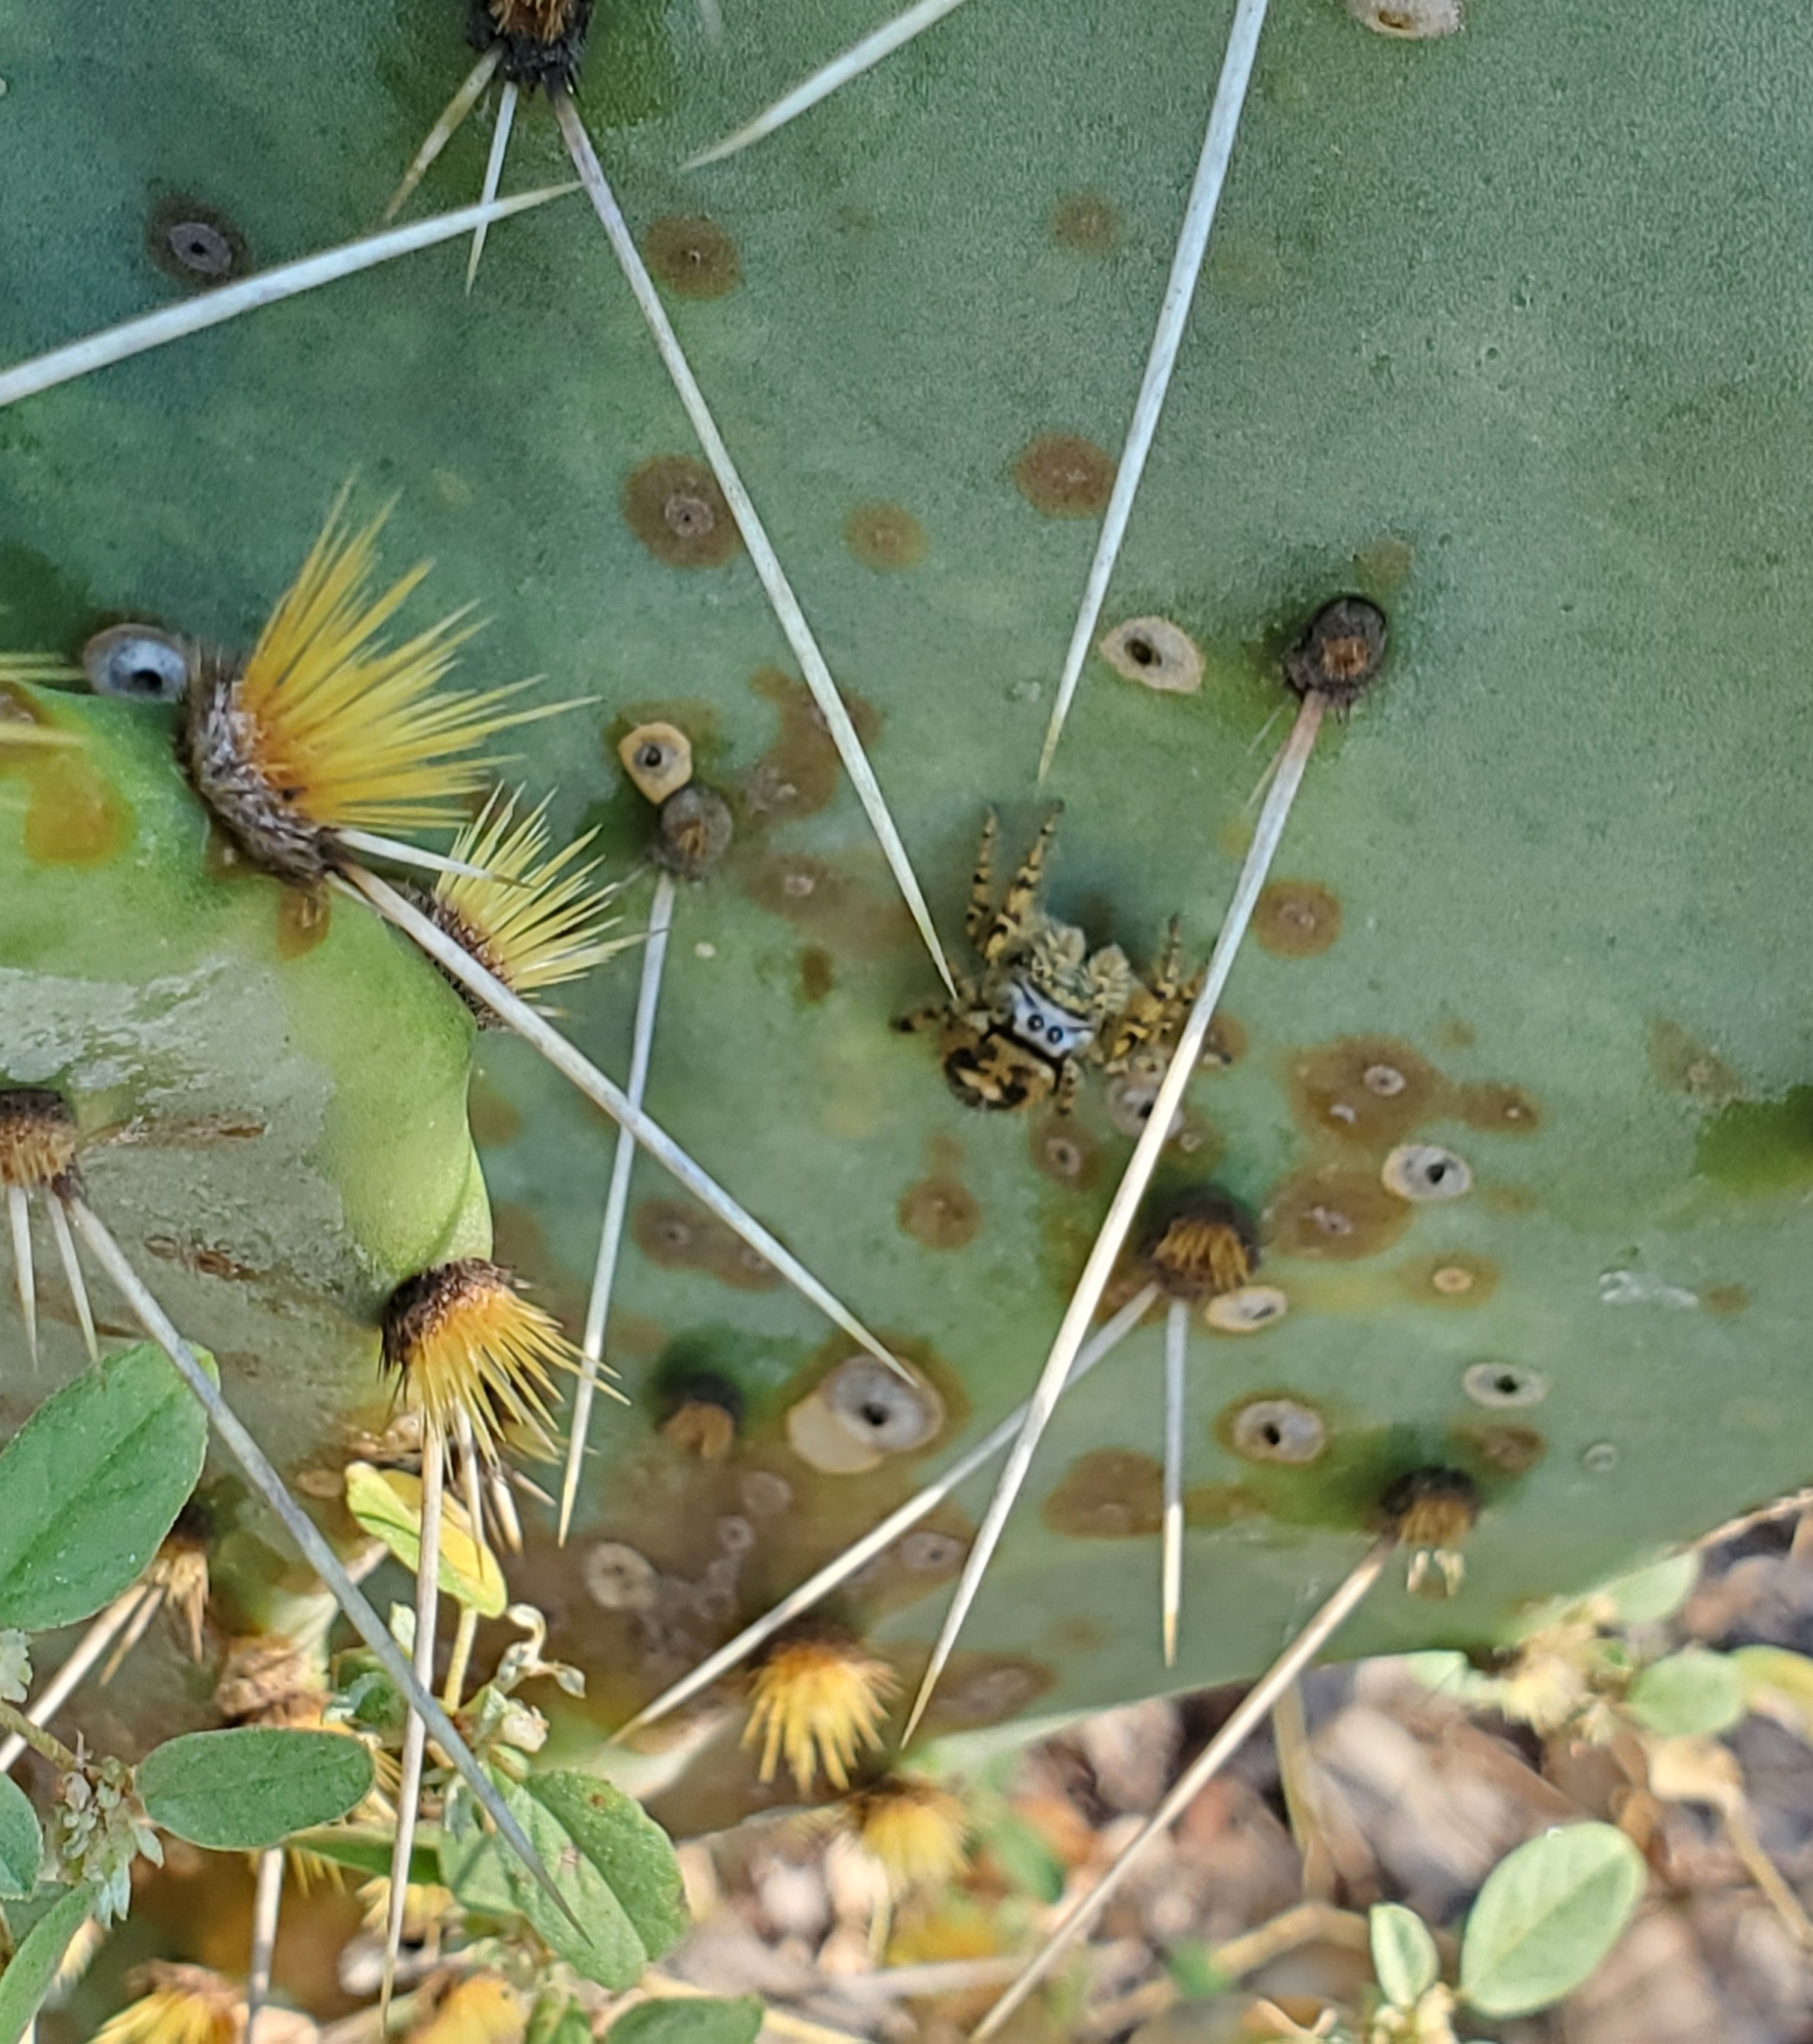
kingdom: Animalia
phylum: Arthropoda
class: Arachnida
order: Araneae
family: Salticidae
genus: Phidippus
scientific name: Phidippus arizonensis
